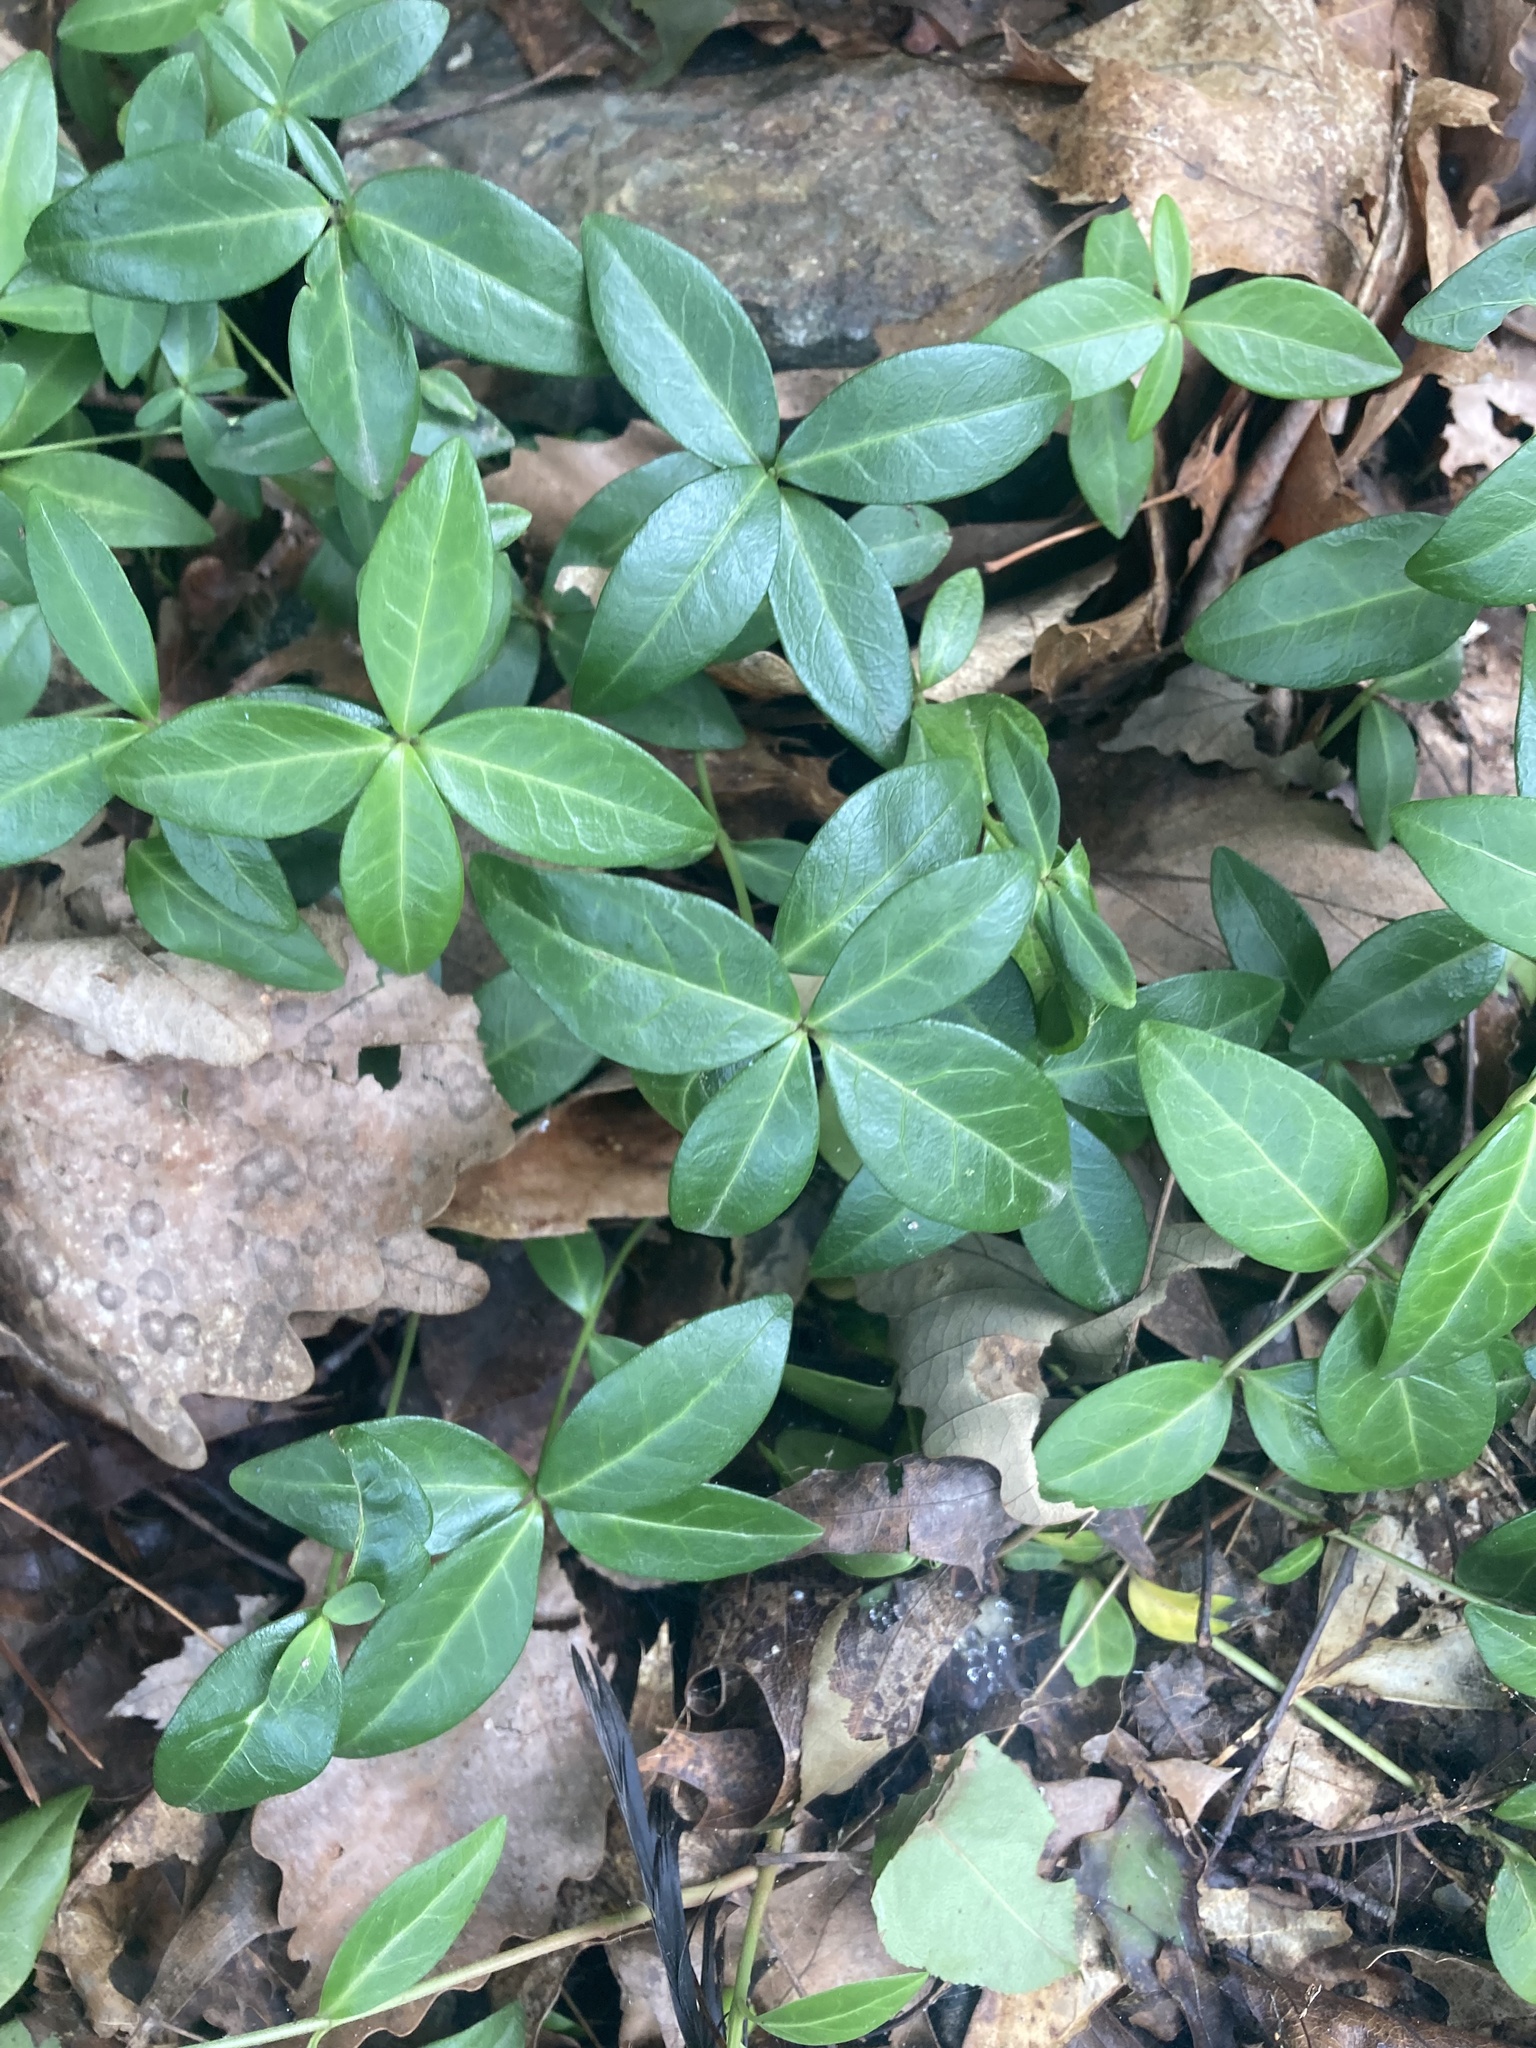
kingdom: Plantae
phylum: Tracheophyta
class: Magnoliopsida
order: Gentianales
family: Apocynaceae
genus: Vinca
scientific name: Vinca minor
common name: Lesser periwinkle
